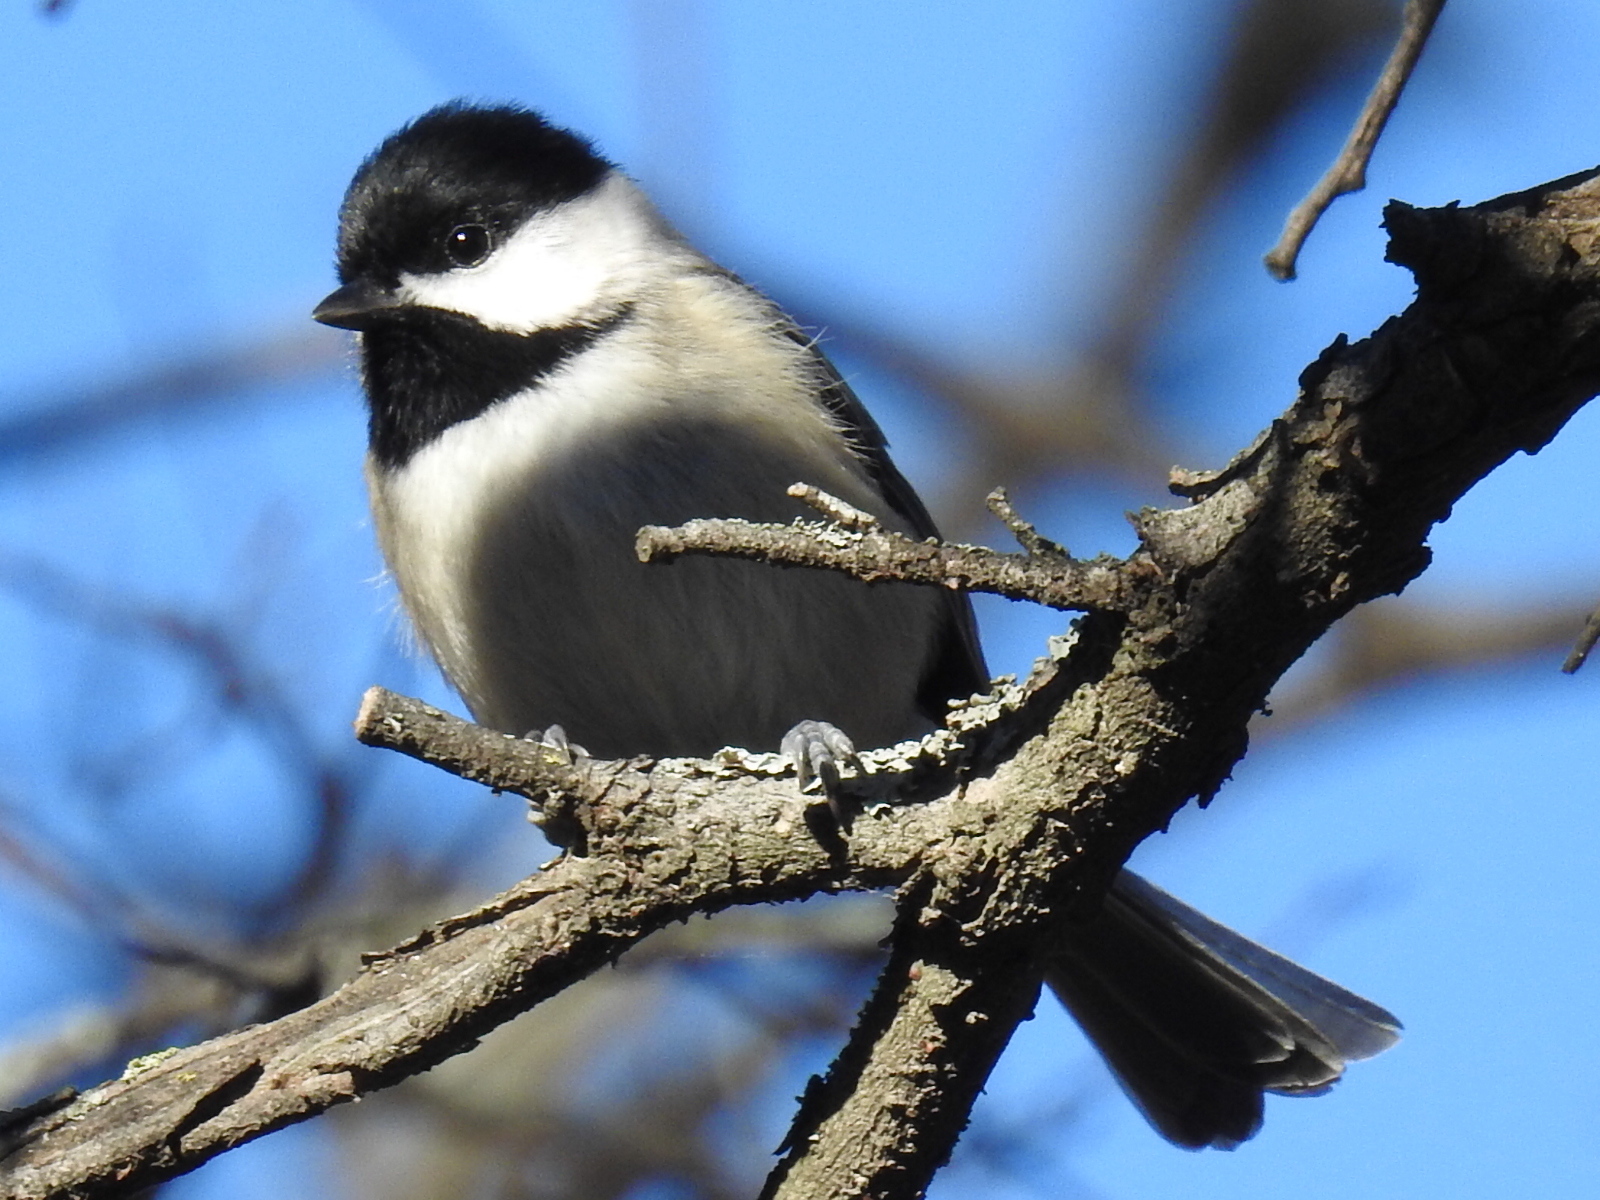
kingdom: Animalia
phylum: Chordata
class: Aves
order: Passeriformes
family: Paridae
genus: Poecile
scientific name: Poecile carolinensis
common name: Carolina chickadee
